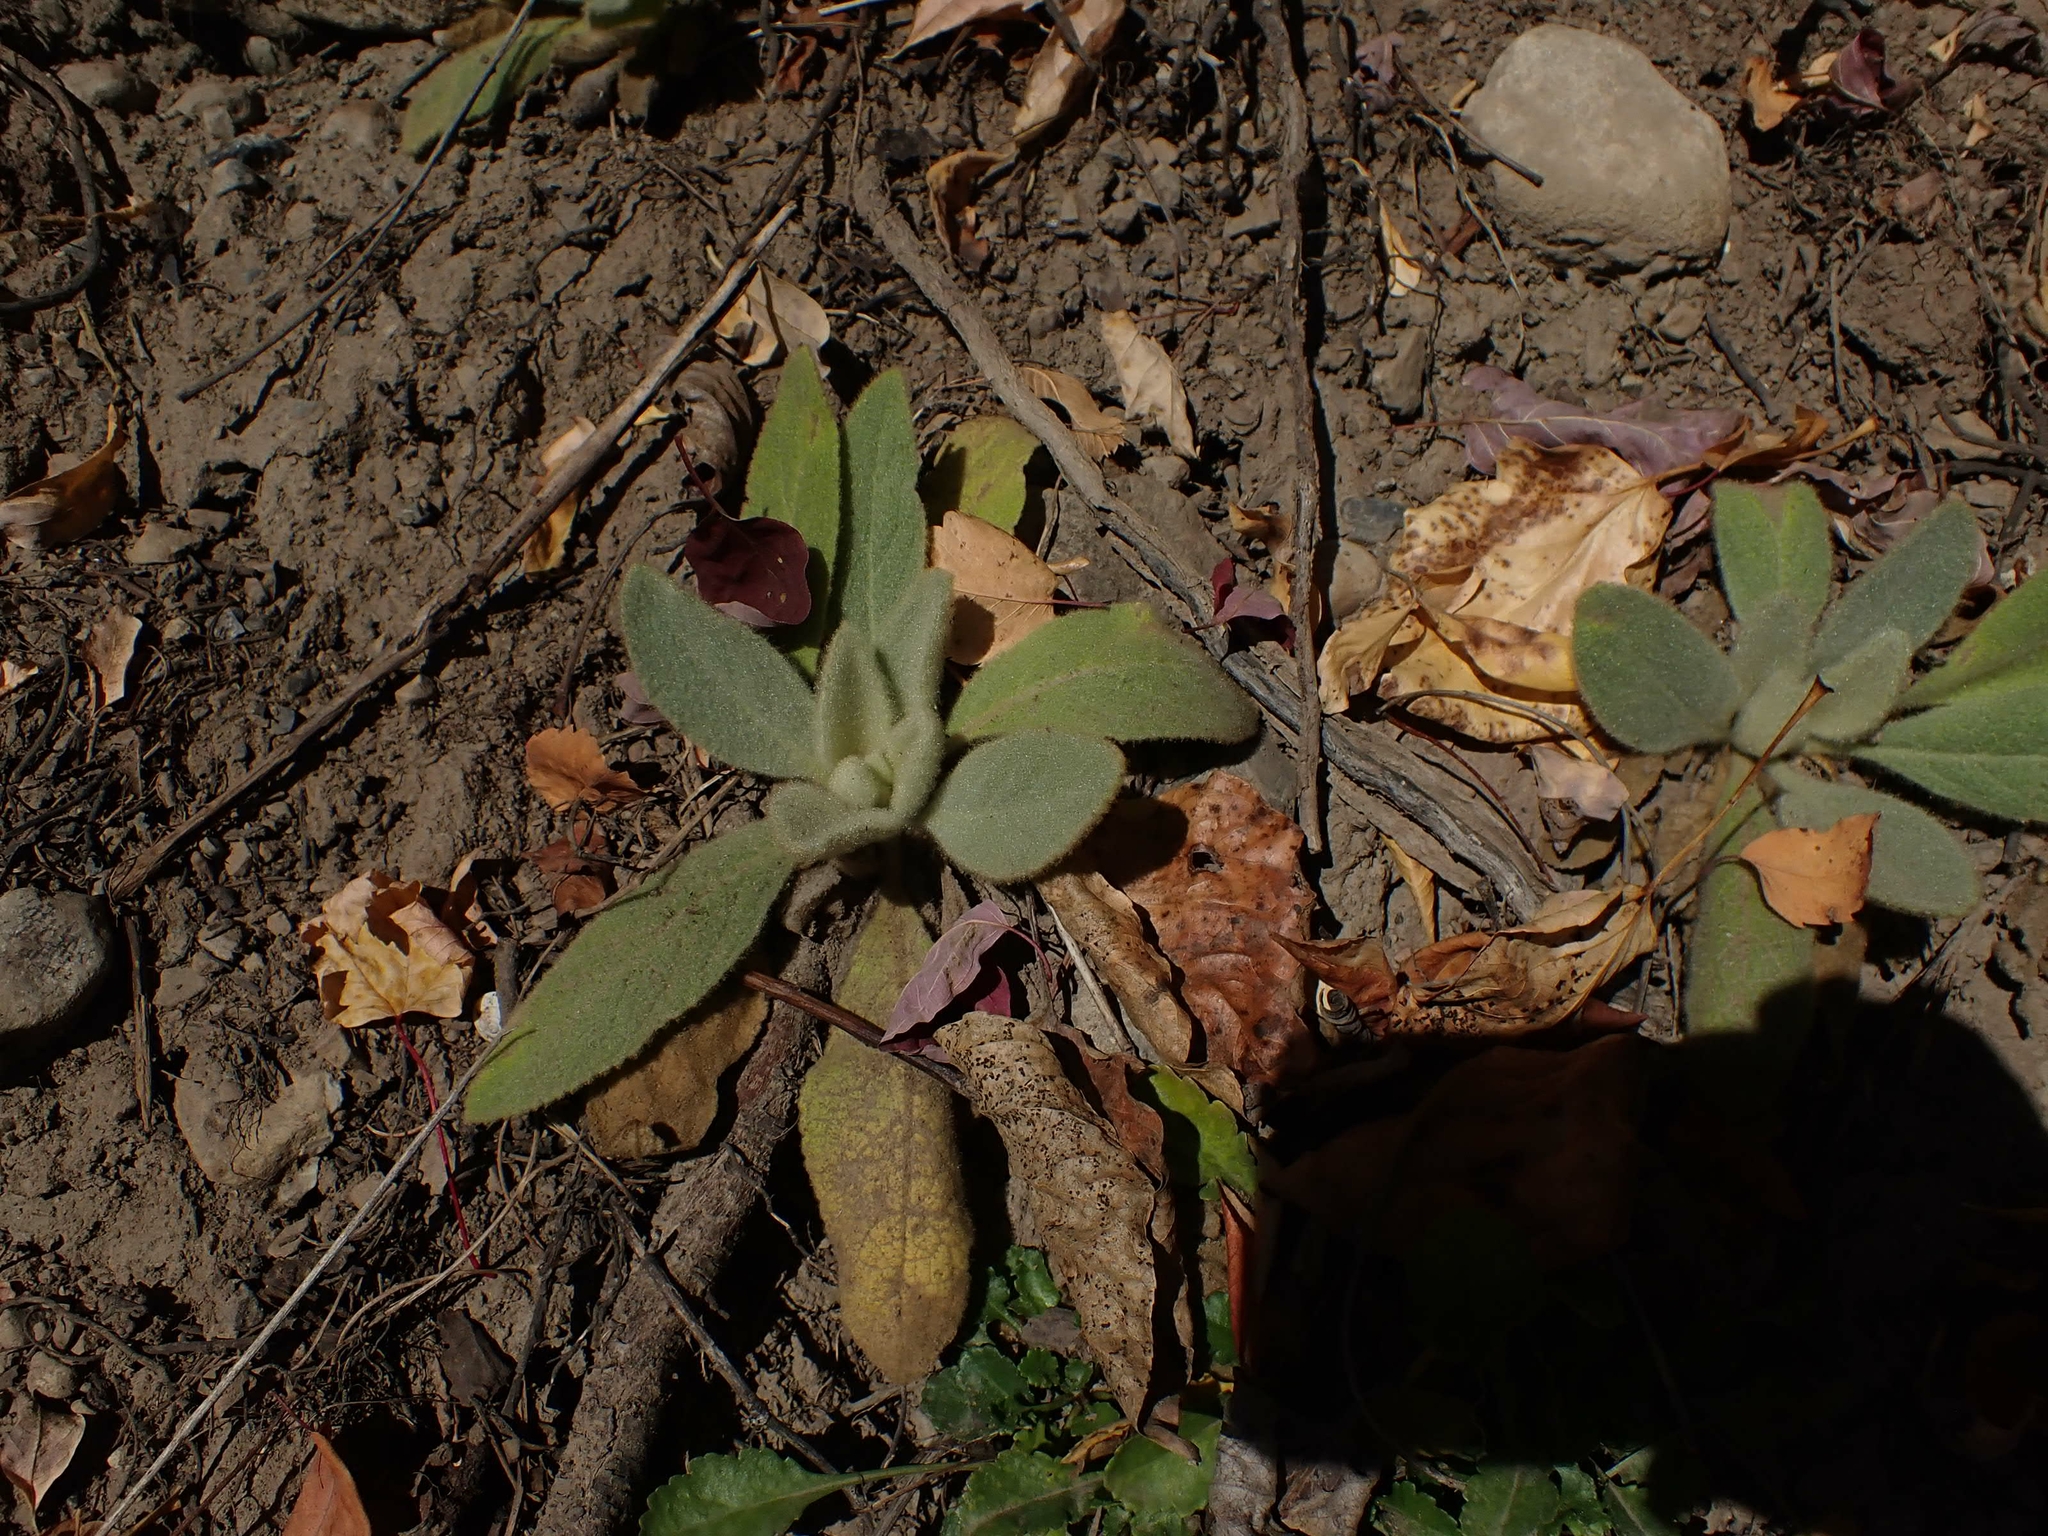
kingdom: Plantae
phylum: Tracheophyta
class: Magnoliopsida
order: Lamiales
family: Scrophulariaceae
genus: Verbascum
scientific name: Verbascum thapsus
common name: Common mullein
